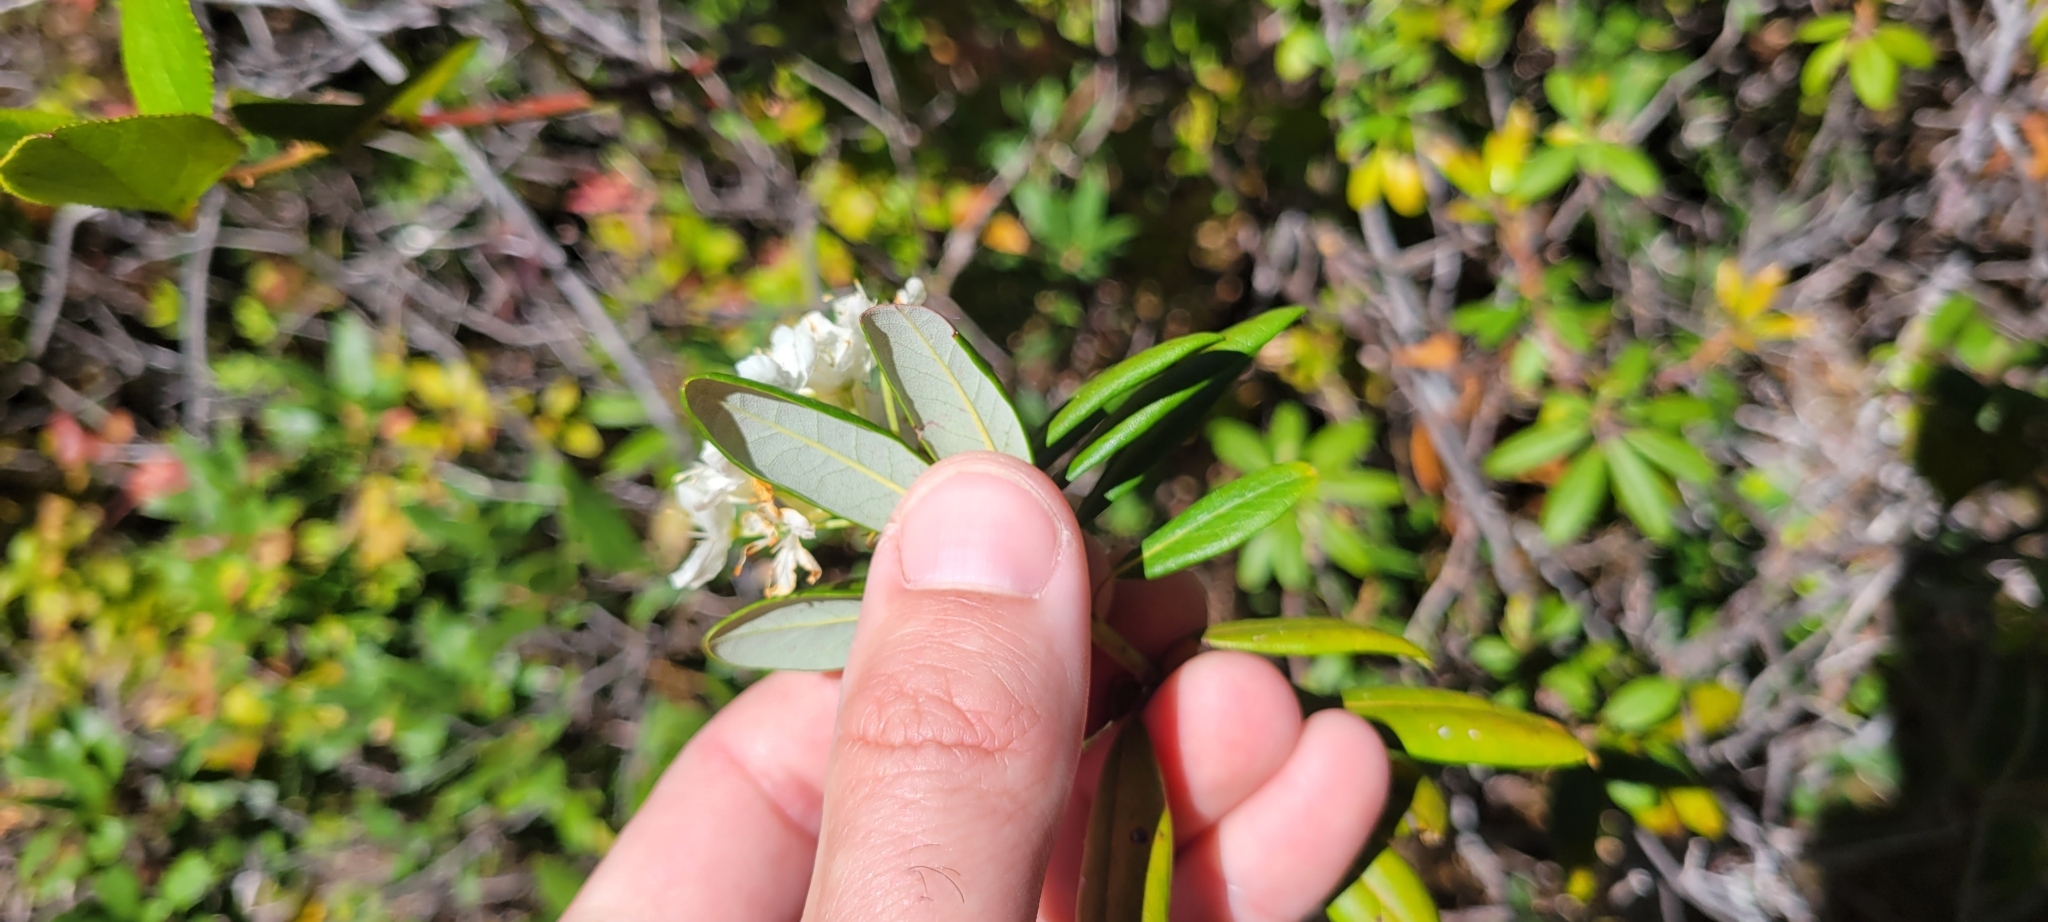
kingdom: Plantae
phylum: Tracheophyta
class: Magnoliopsida
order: Ericales
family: Ericaceae
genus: Rhododendron
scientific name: Rhododendron columbianum
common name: Western labrador tea
